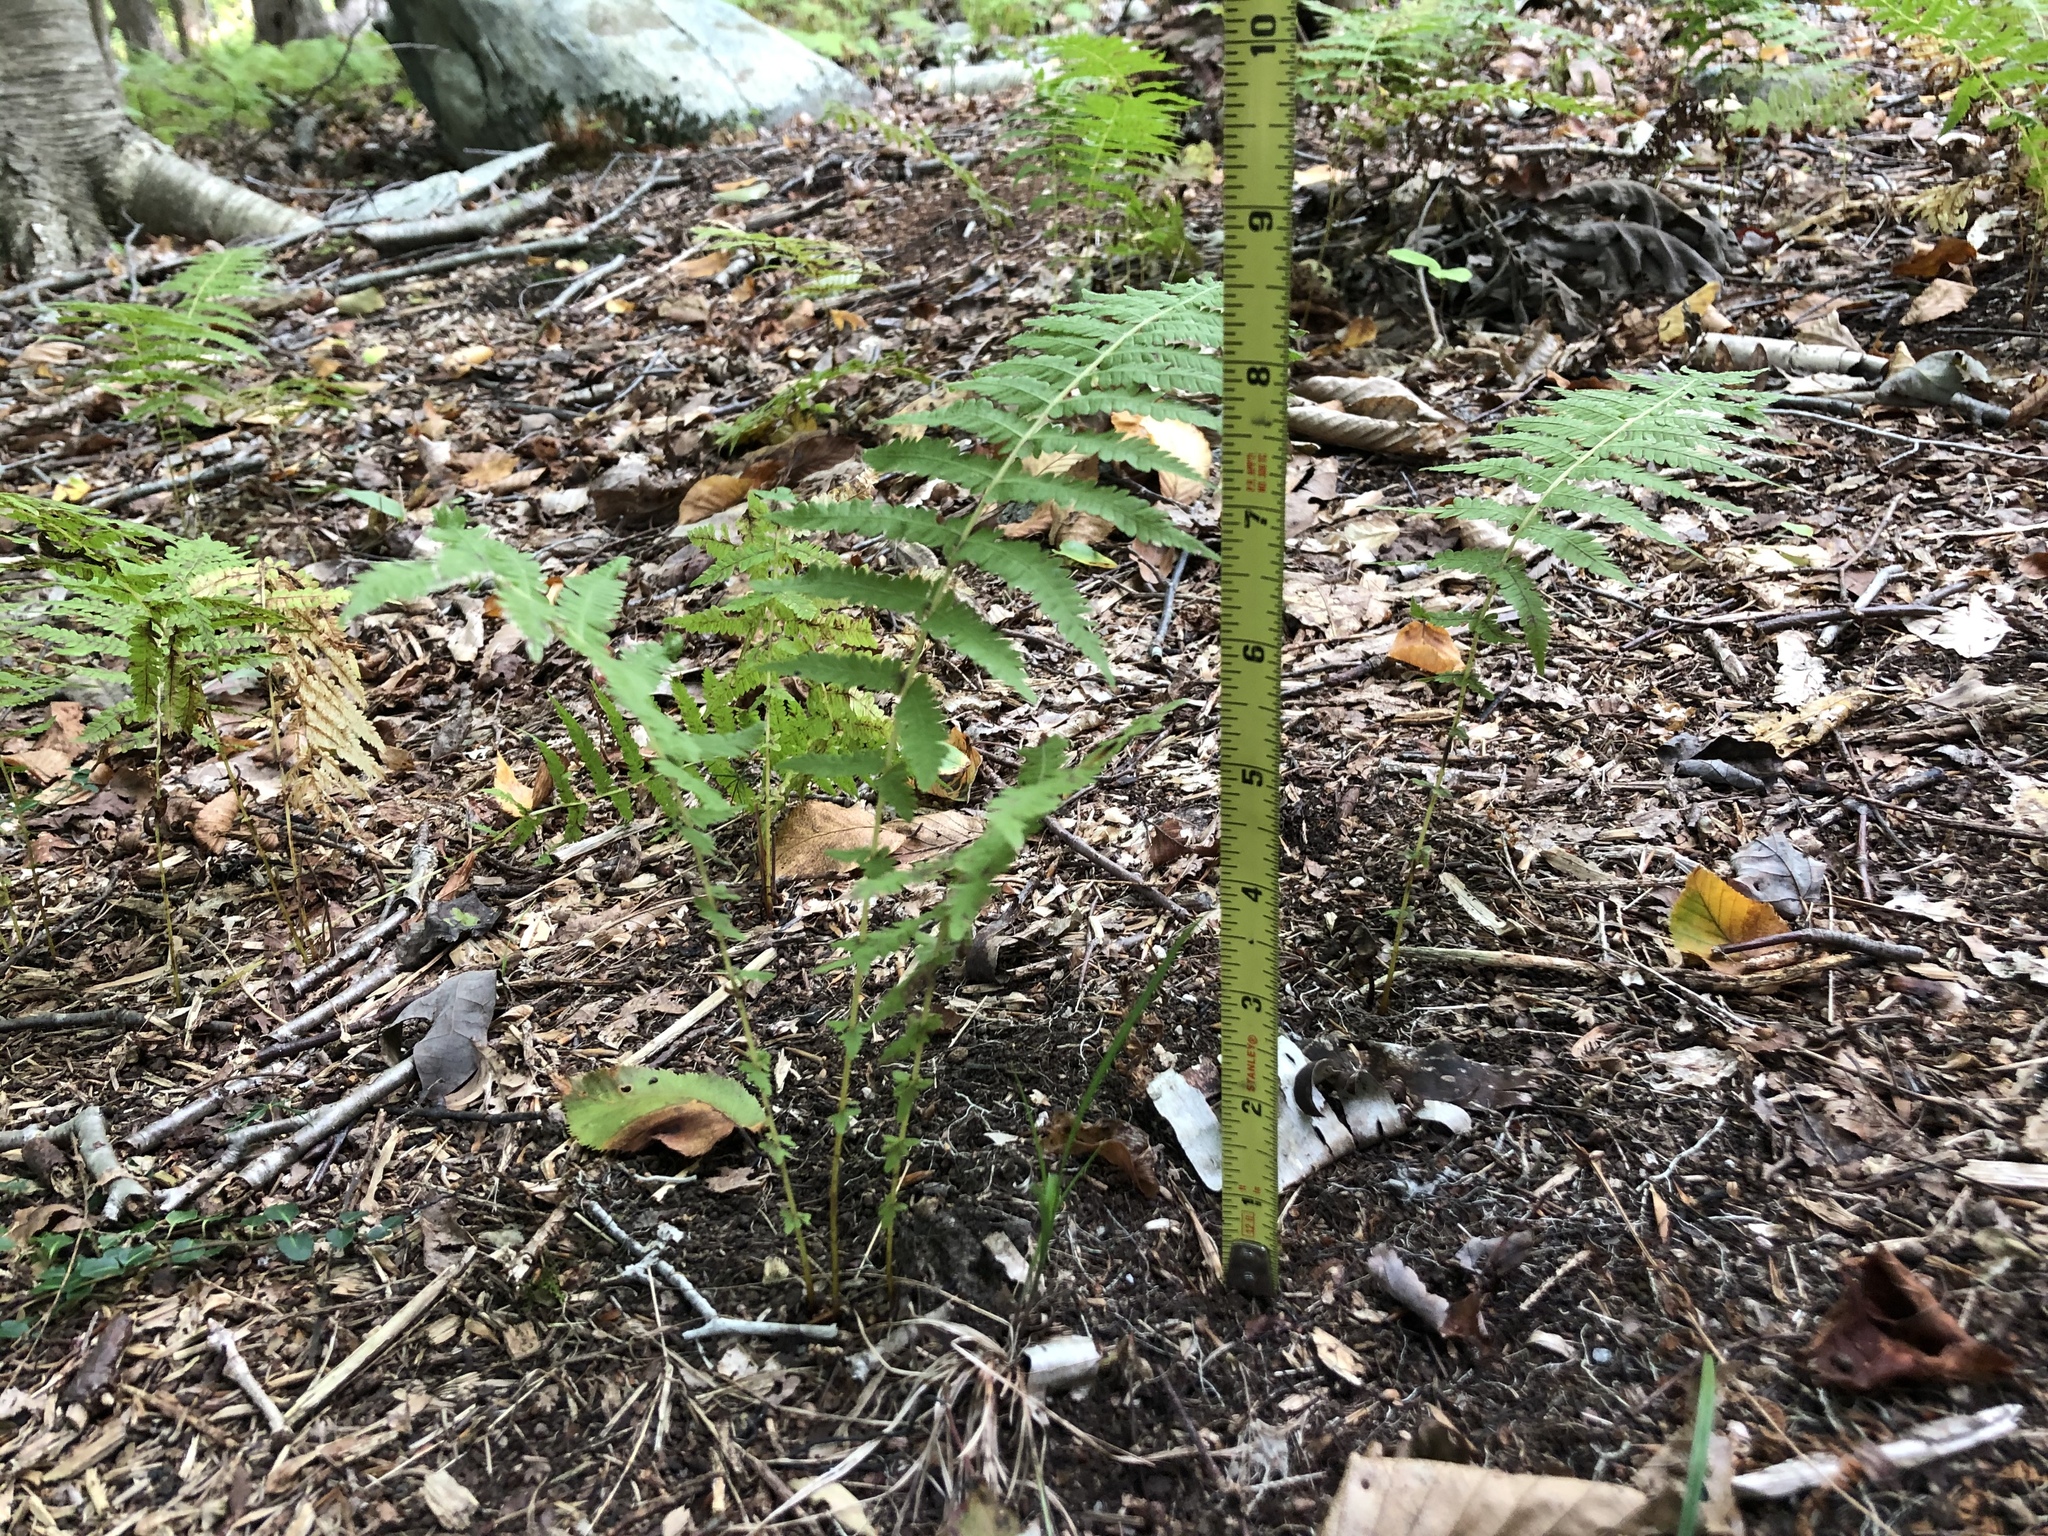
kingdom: Plantae
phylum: Tracheophyta
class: Polypodiopsida
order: Polypodiales
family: Thelypteridaceae
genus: Amauropelta
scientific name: Amauropelta noveboracensis
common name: New york fern
